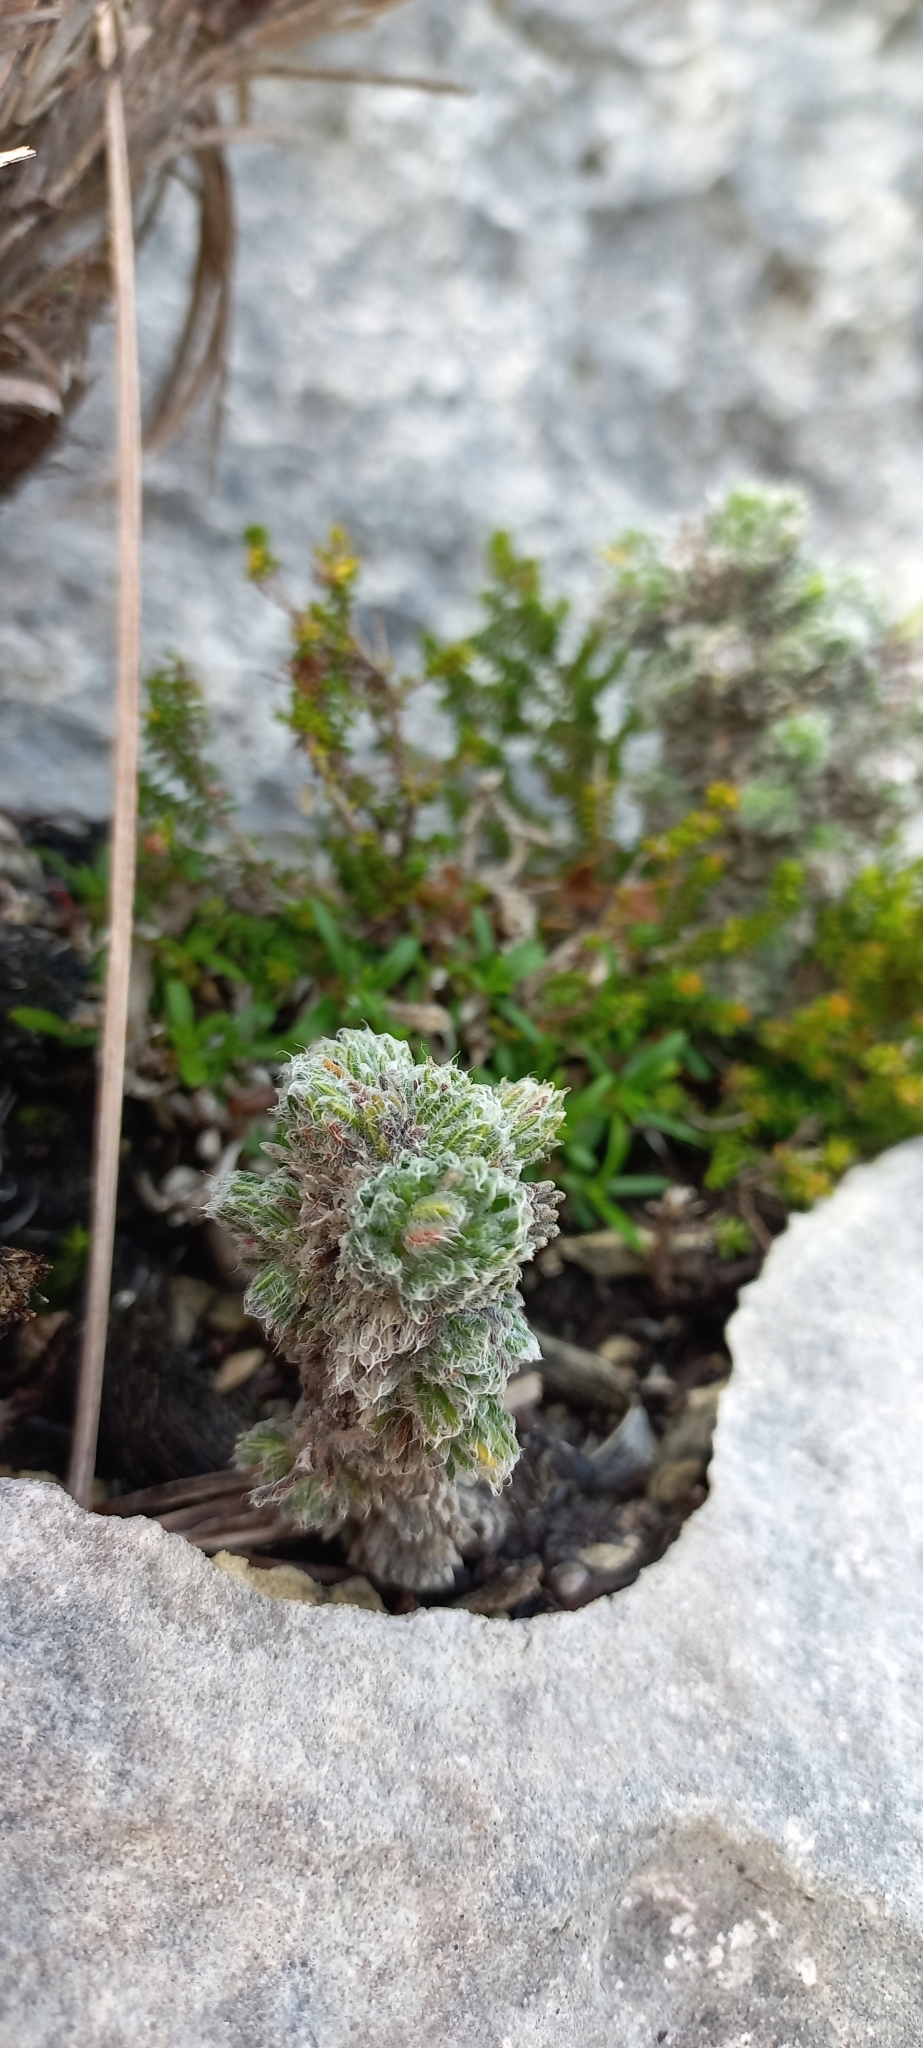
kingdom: Plantae
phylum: Tracheophyta
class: Magnoliopsida
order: Ericales
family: Ericaceae
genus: Erica
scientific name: Erica occulta
